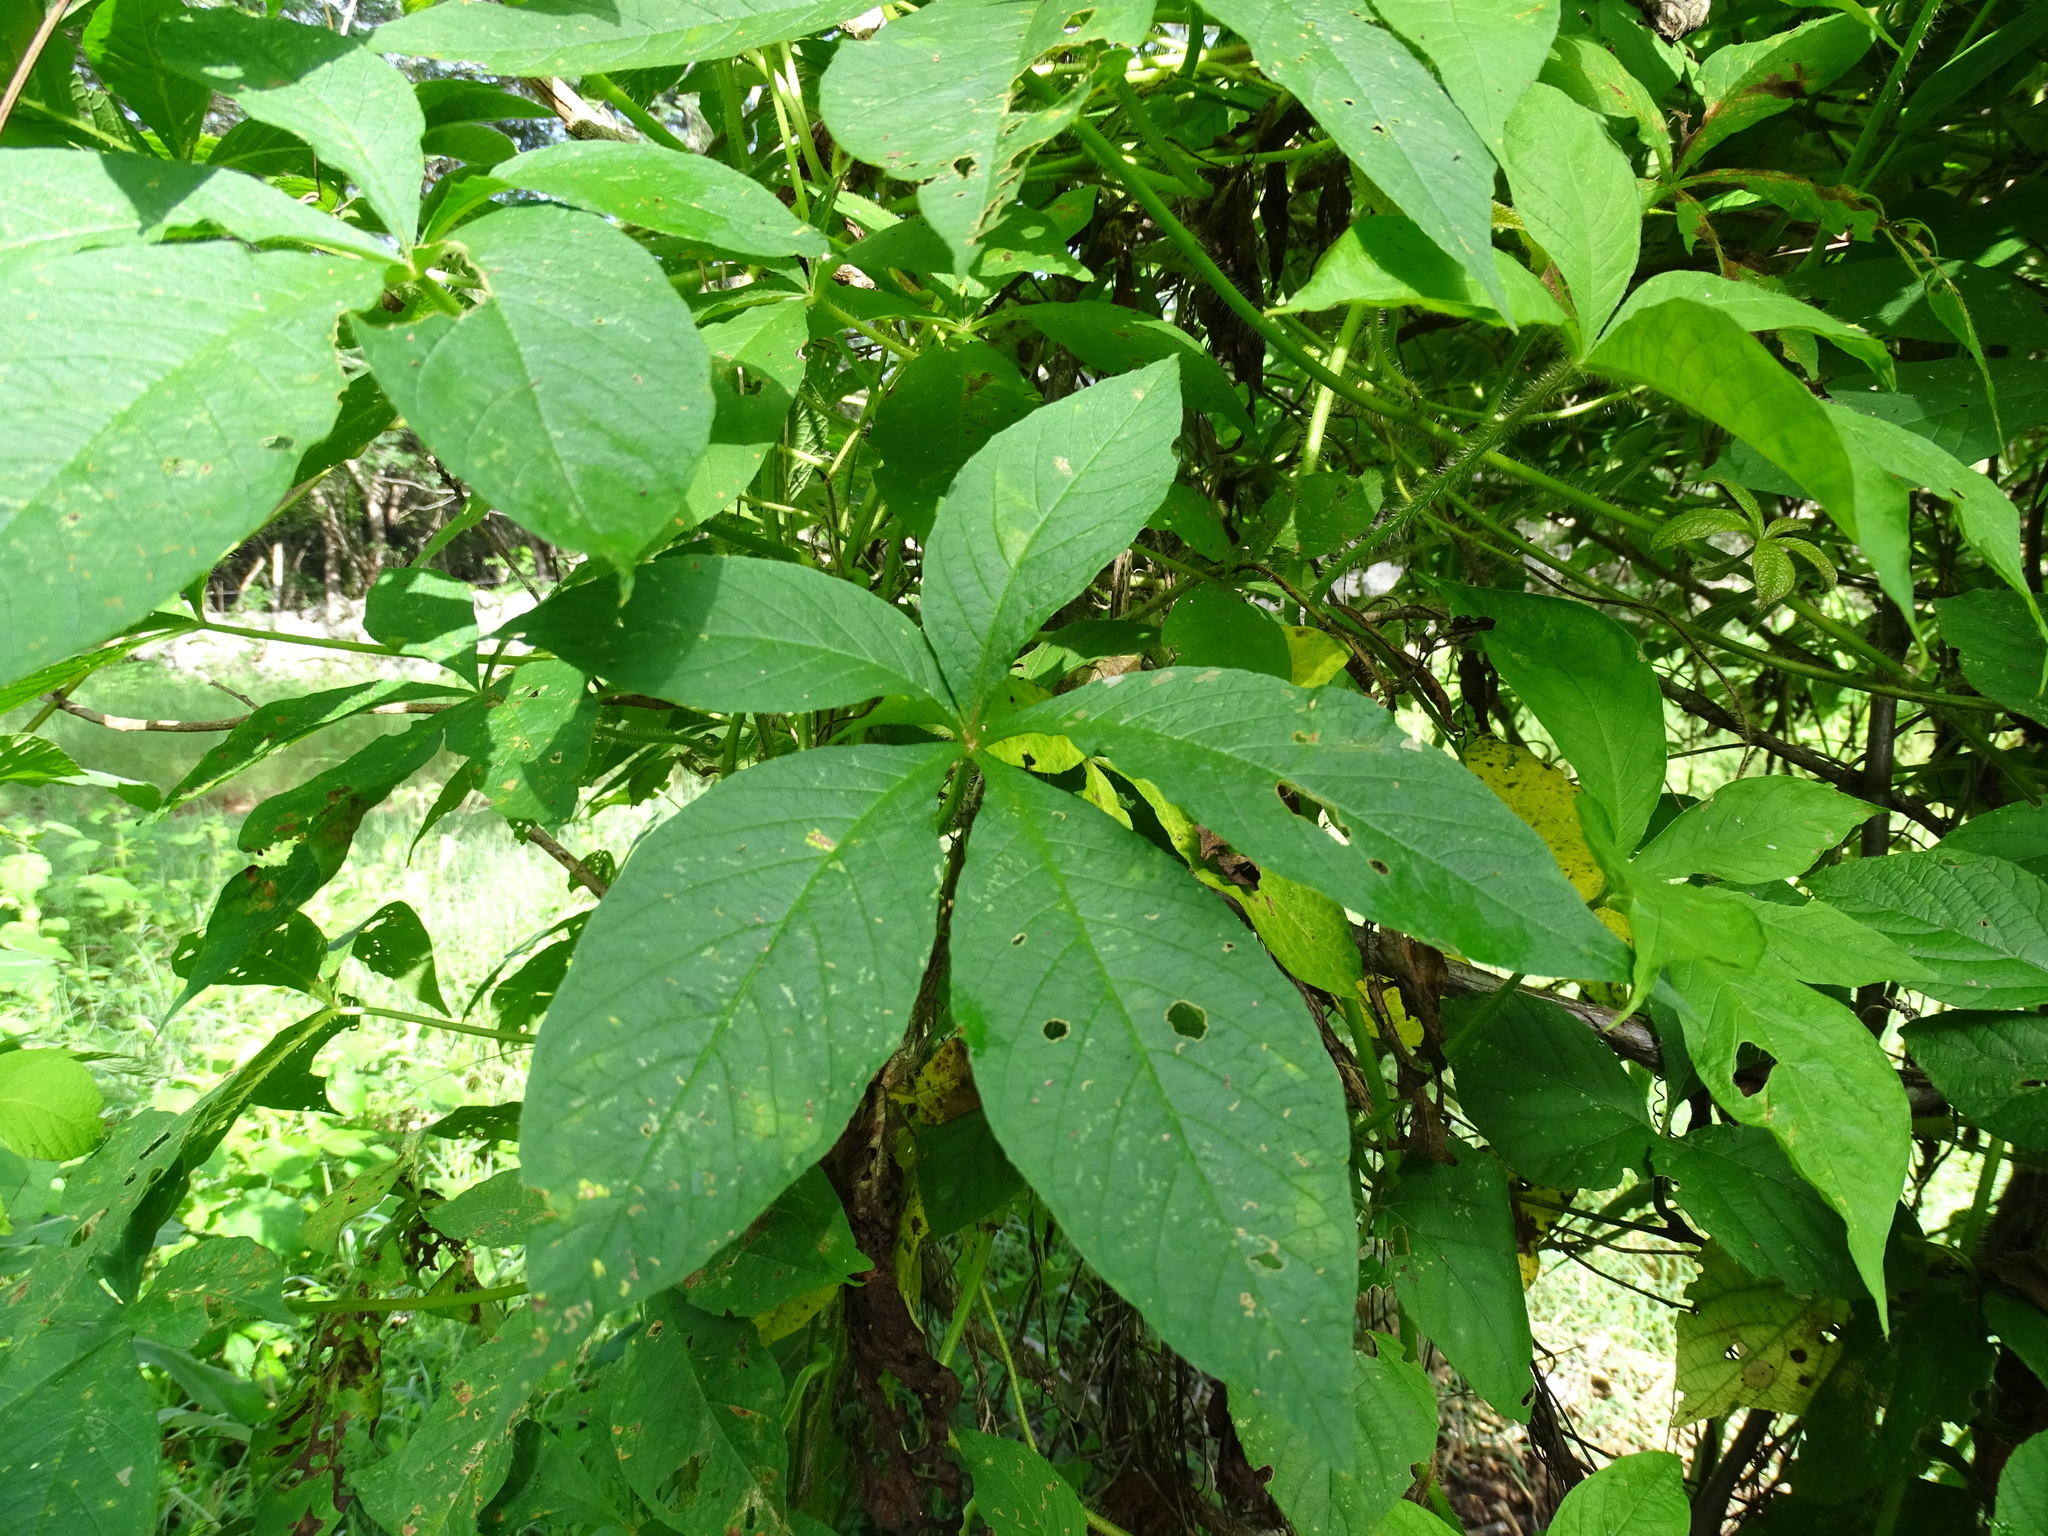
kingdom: Plantae
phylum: Tracheophyta
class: Magnoliopsida
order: Solanales
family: Convolvulaceae
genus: Distimake
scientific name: Distimake aegyptius
